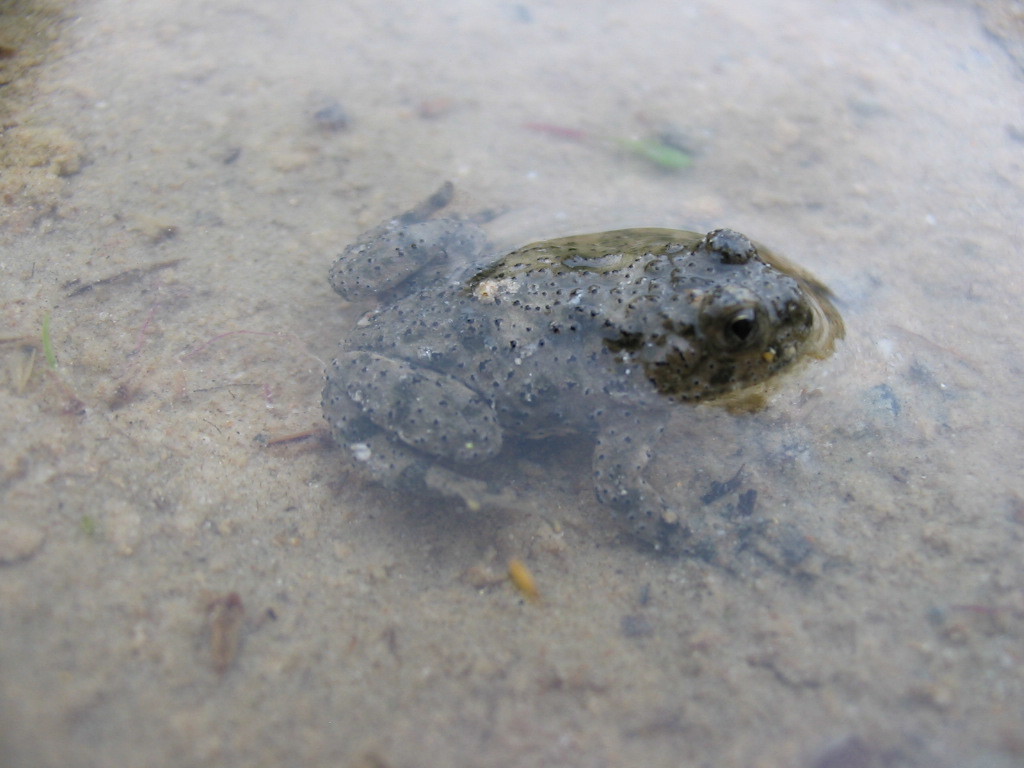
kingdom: Animalia
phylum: Chordata
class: Amphibia
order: Anura
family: Bombinatoridae
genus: Bombina
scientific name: Bombina variegata
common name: Yellow-bellied toad
